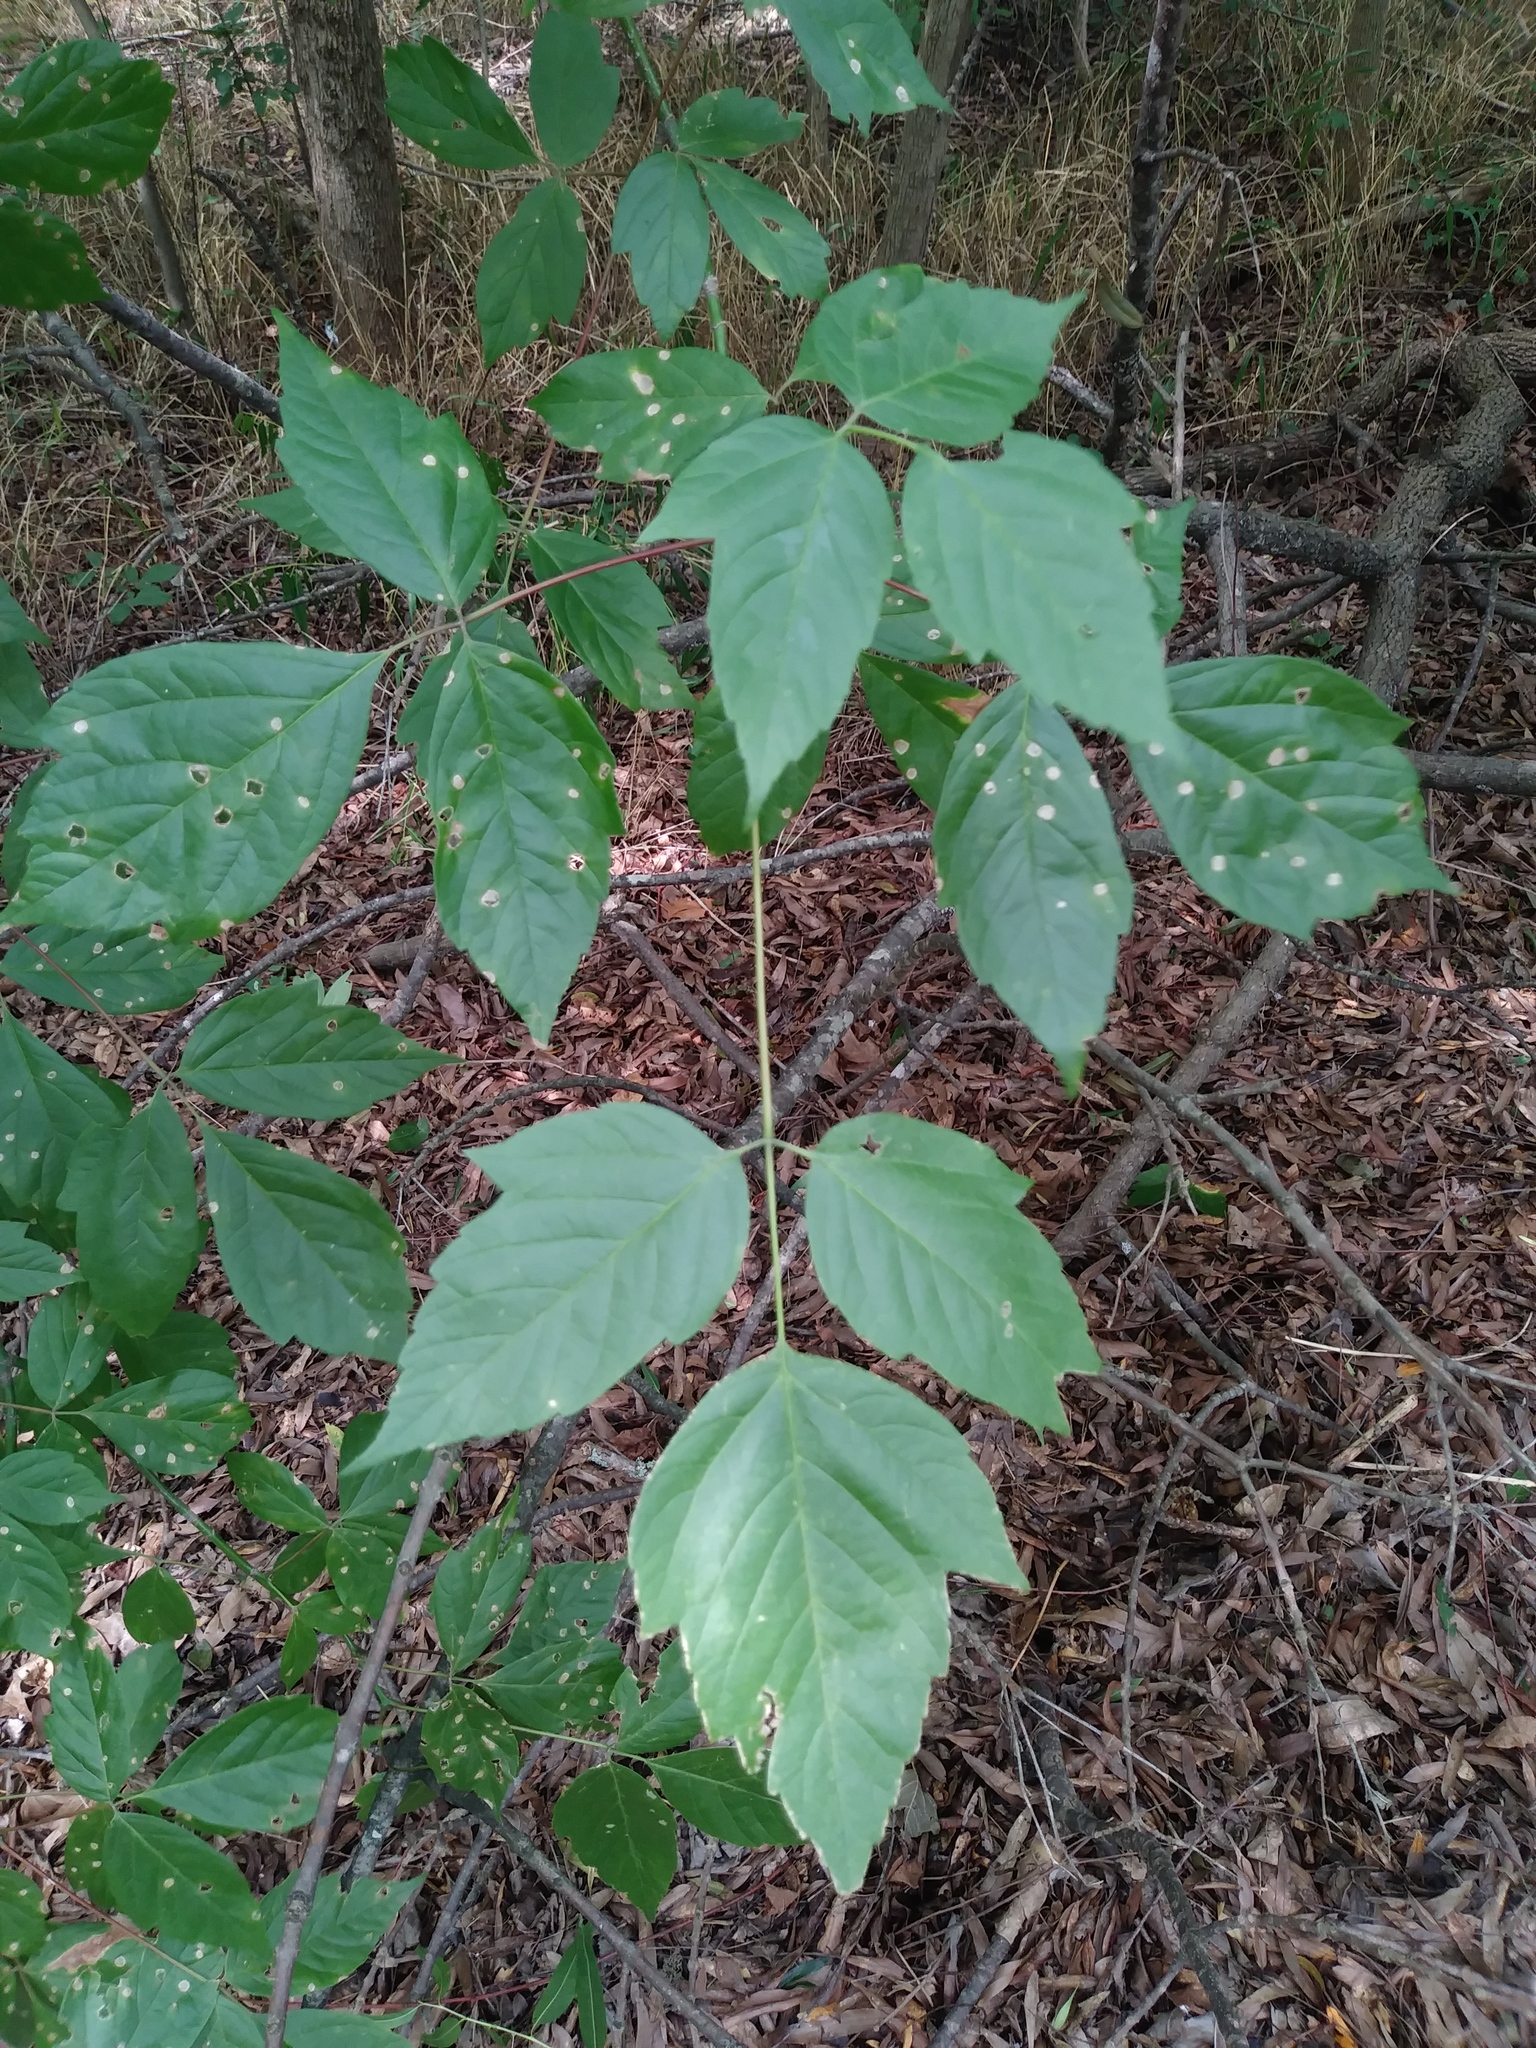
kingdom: Plantae
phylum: Tracheophyta
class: Magnoliopsida
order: Sapindales
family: Sapindaceae
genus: Acer
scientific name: Acer negundo
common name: Ashleaf maple
